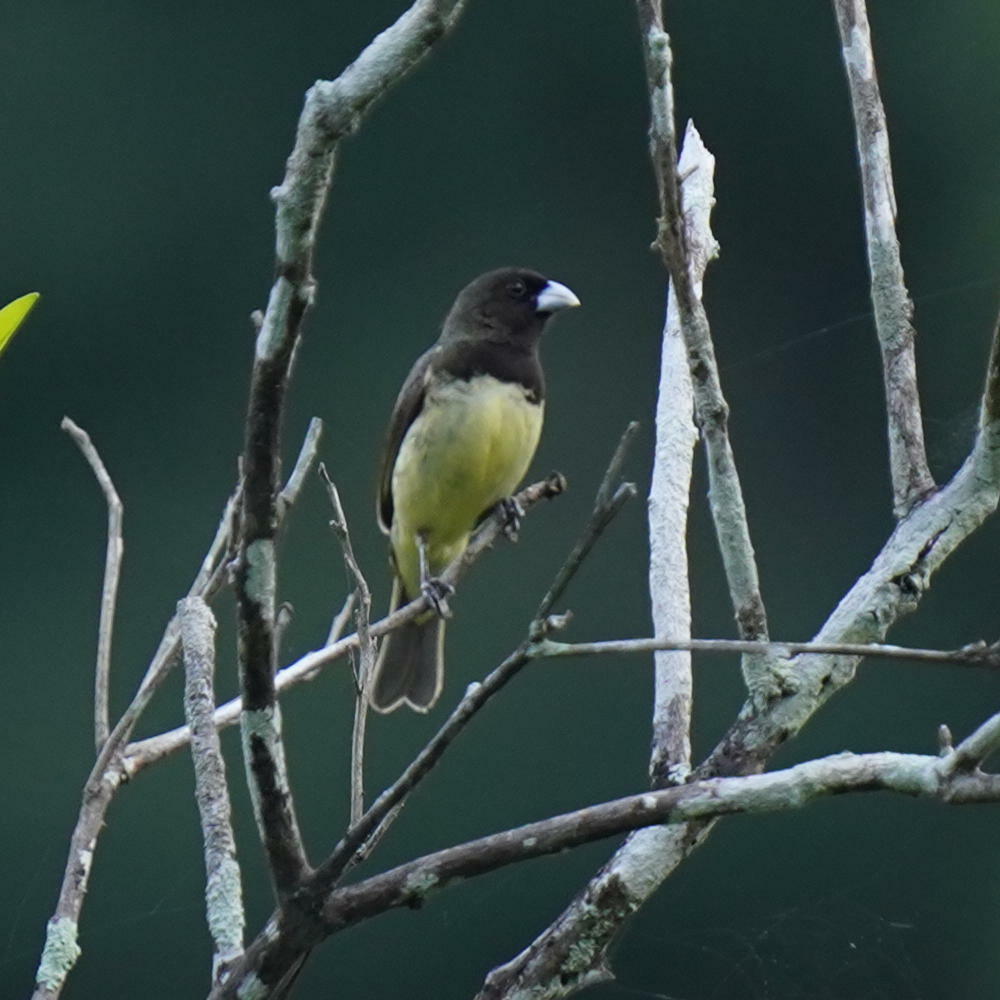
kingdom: Animalia
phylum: Chordata
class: Aves
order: Passeriformes
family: Thraupidae
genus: Sporophila
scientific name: Sporophila nigricollis
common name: Yellow-bellied seedeater
